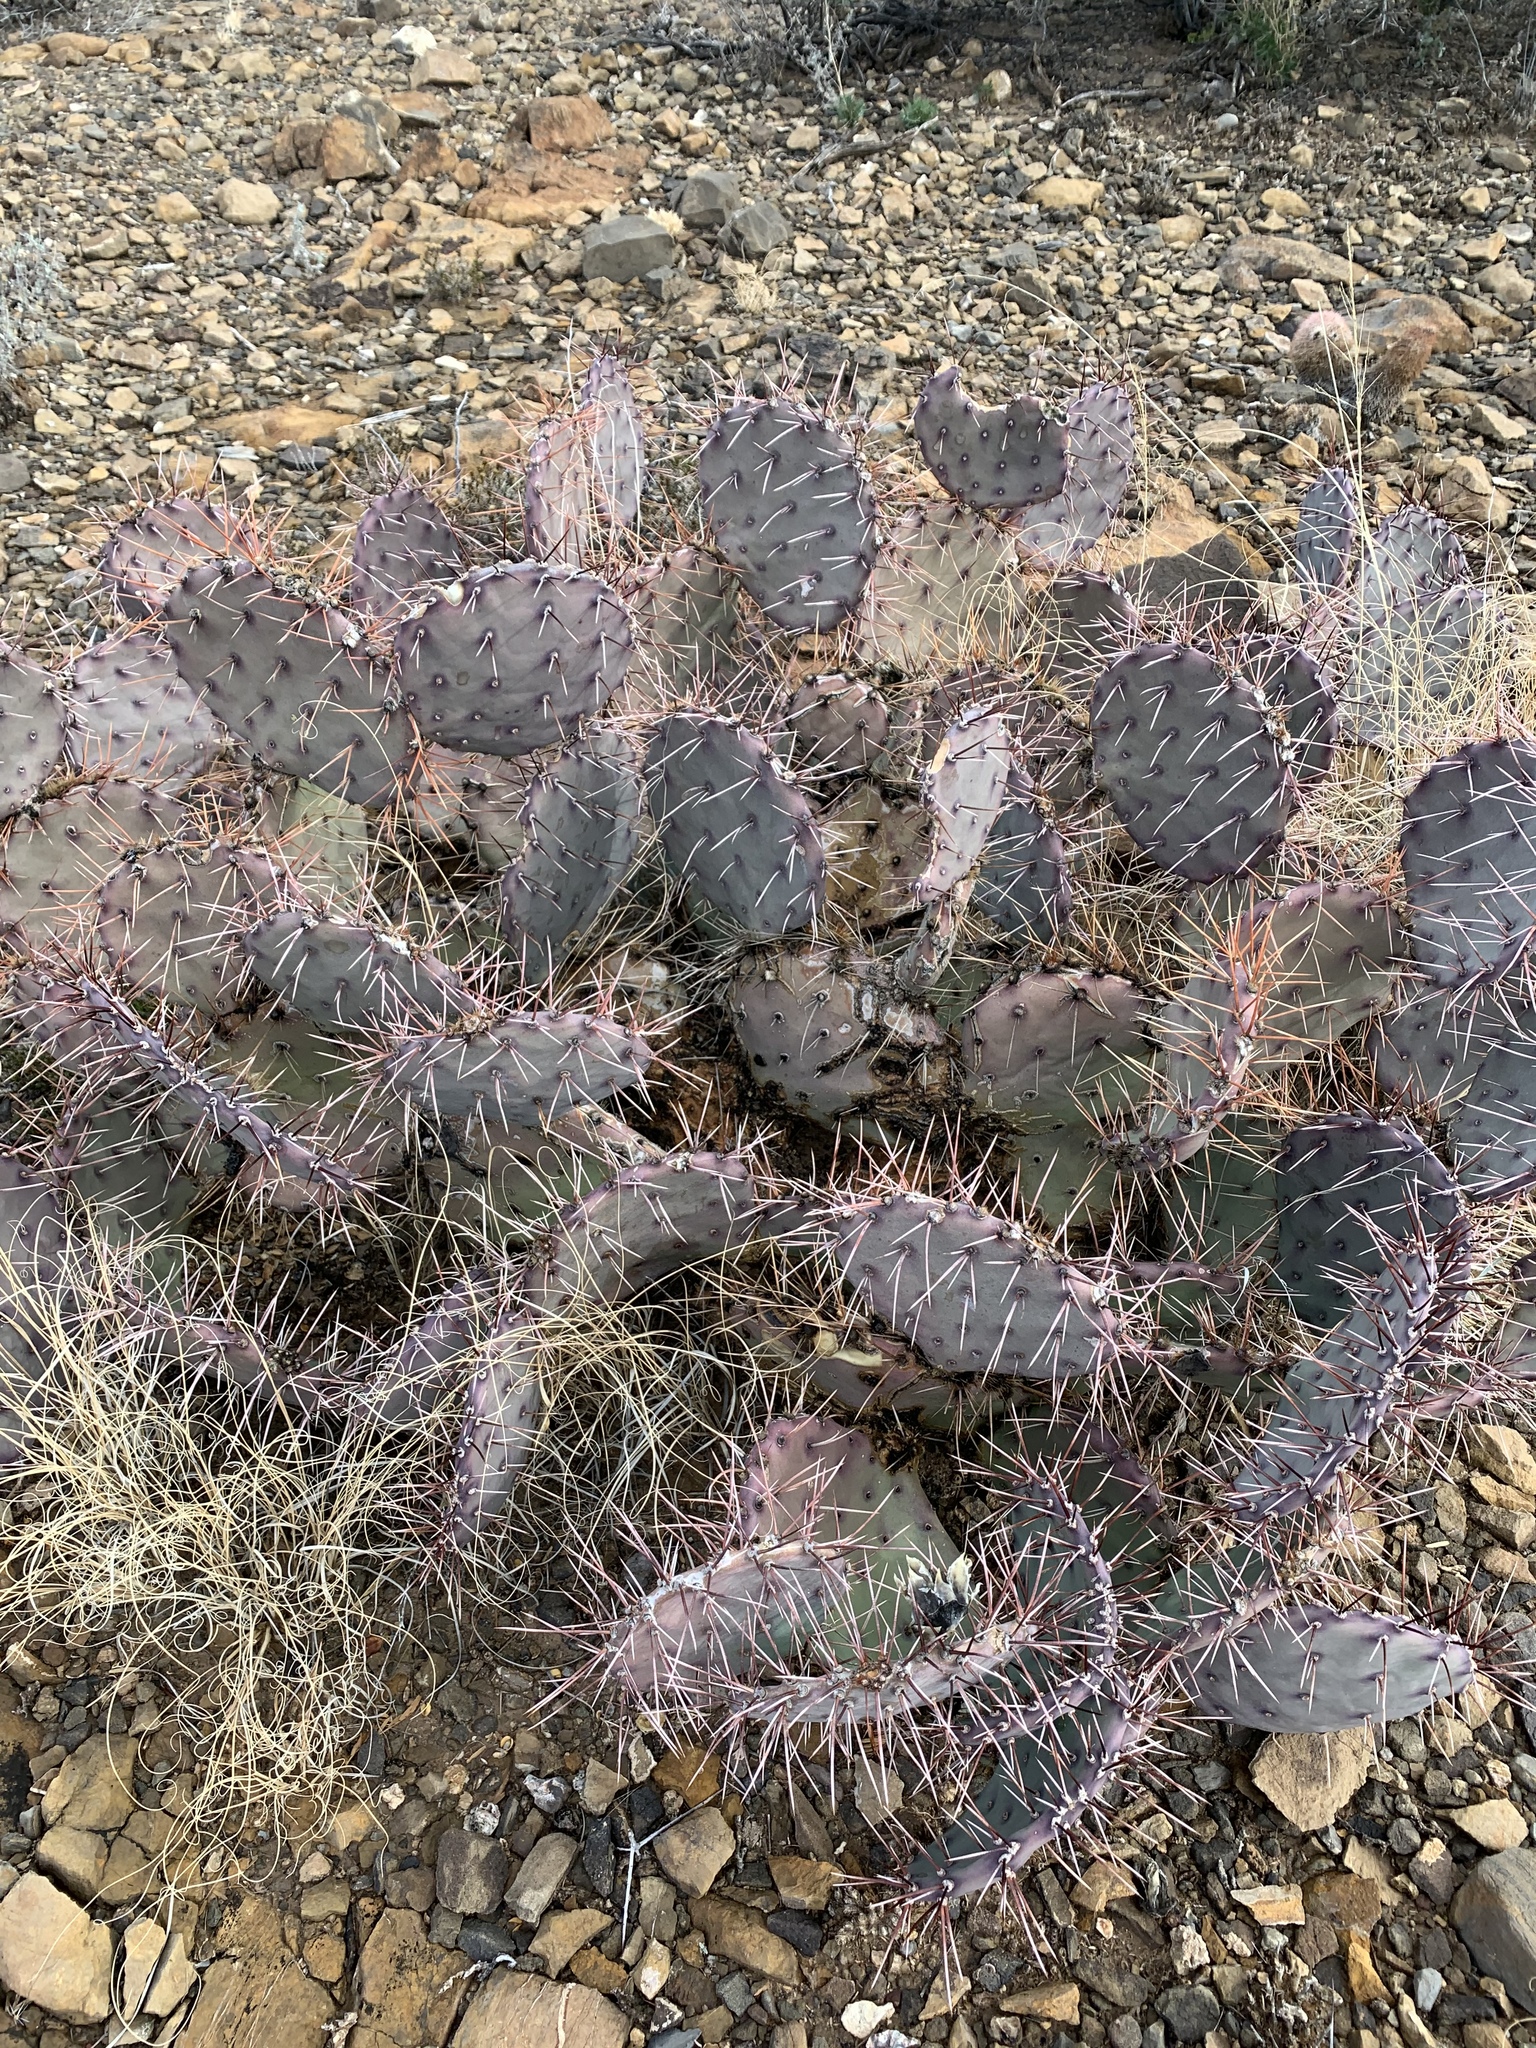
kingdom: Plantae
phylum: Tracheophyta
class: Magnoliopsida
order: Caryophyllales
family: Cactaceae
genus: Opuntia
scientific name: Opuntia macrocentra
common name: Purple prickly-pear
